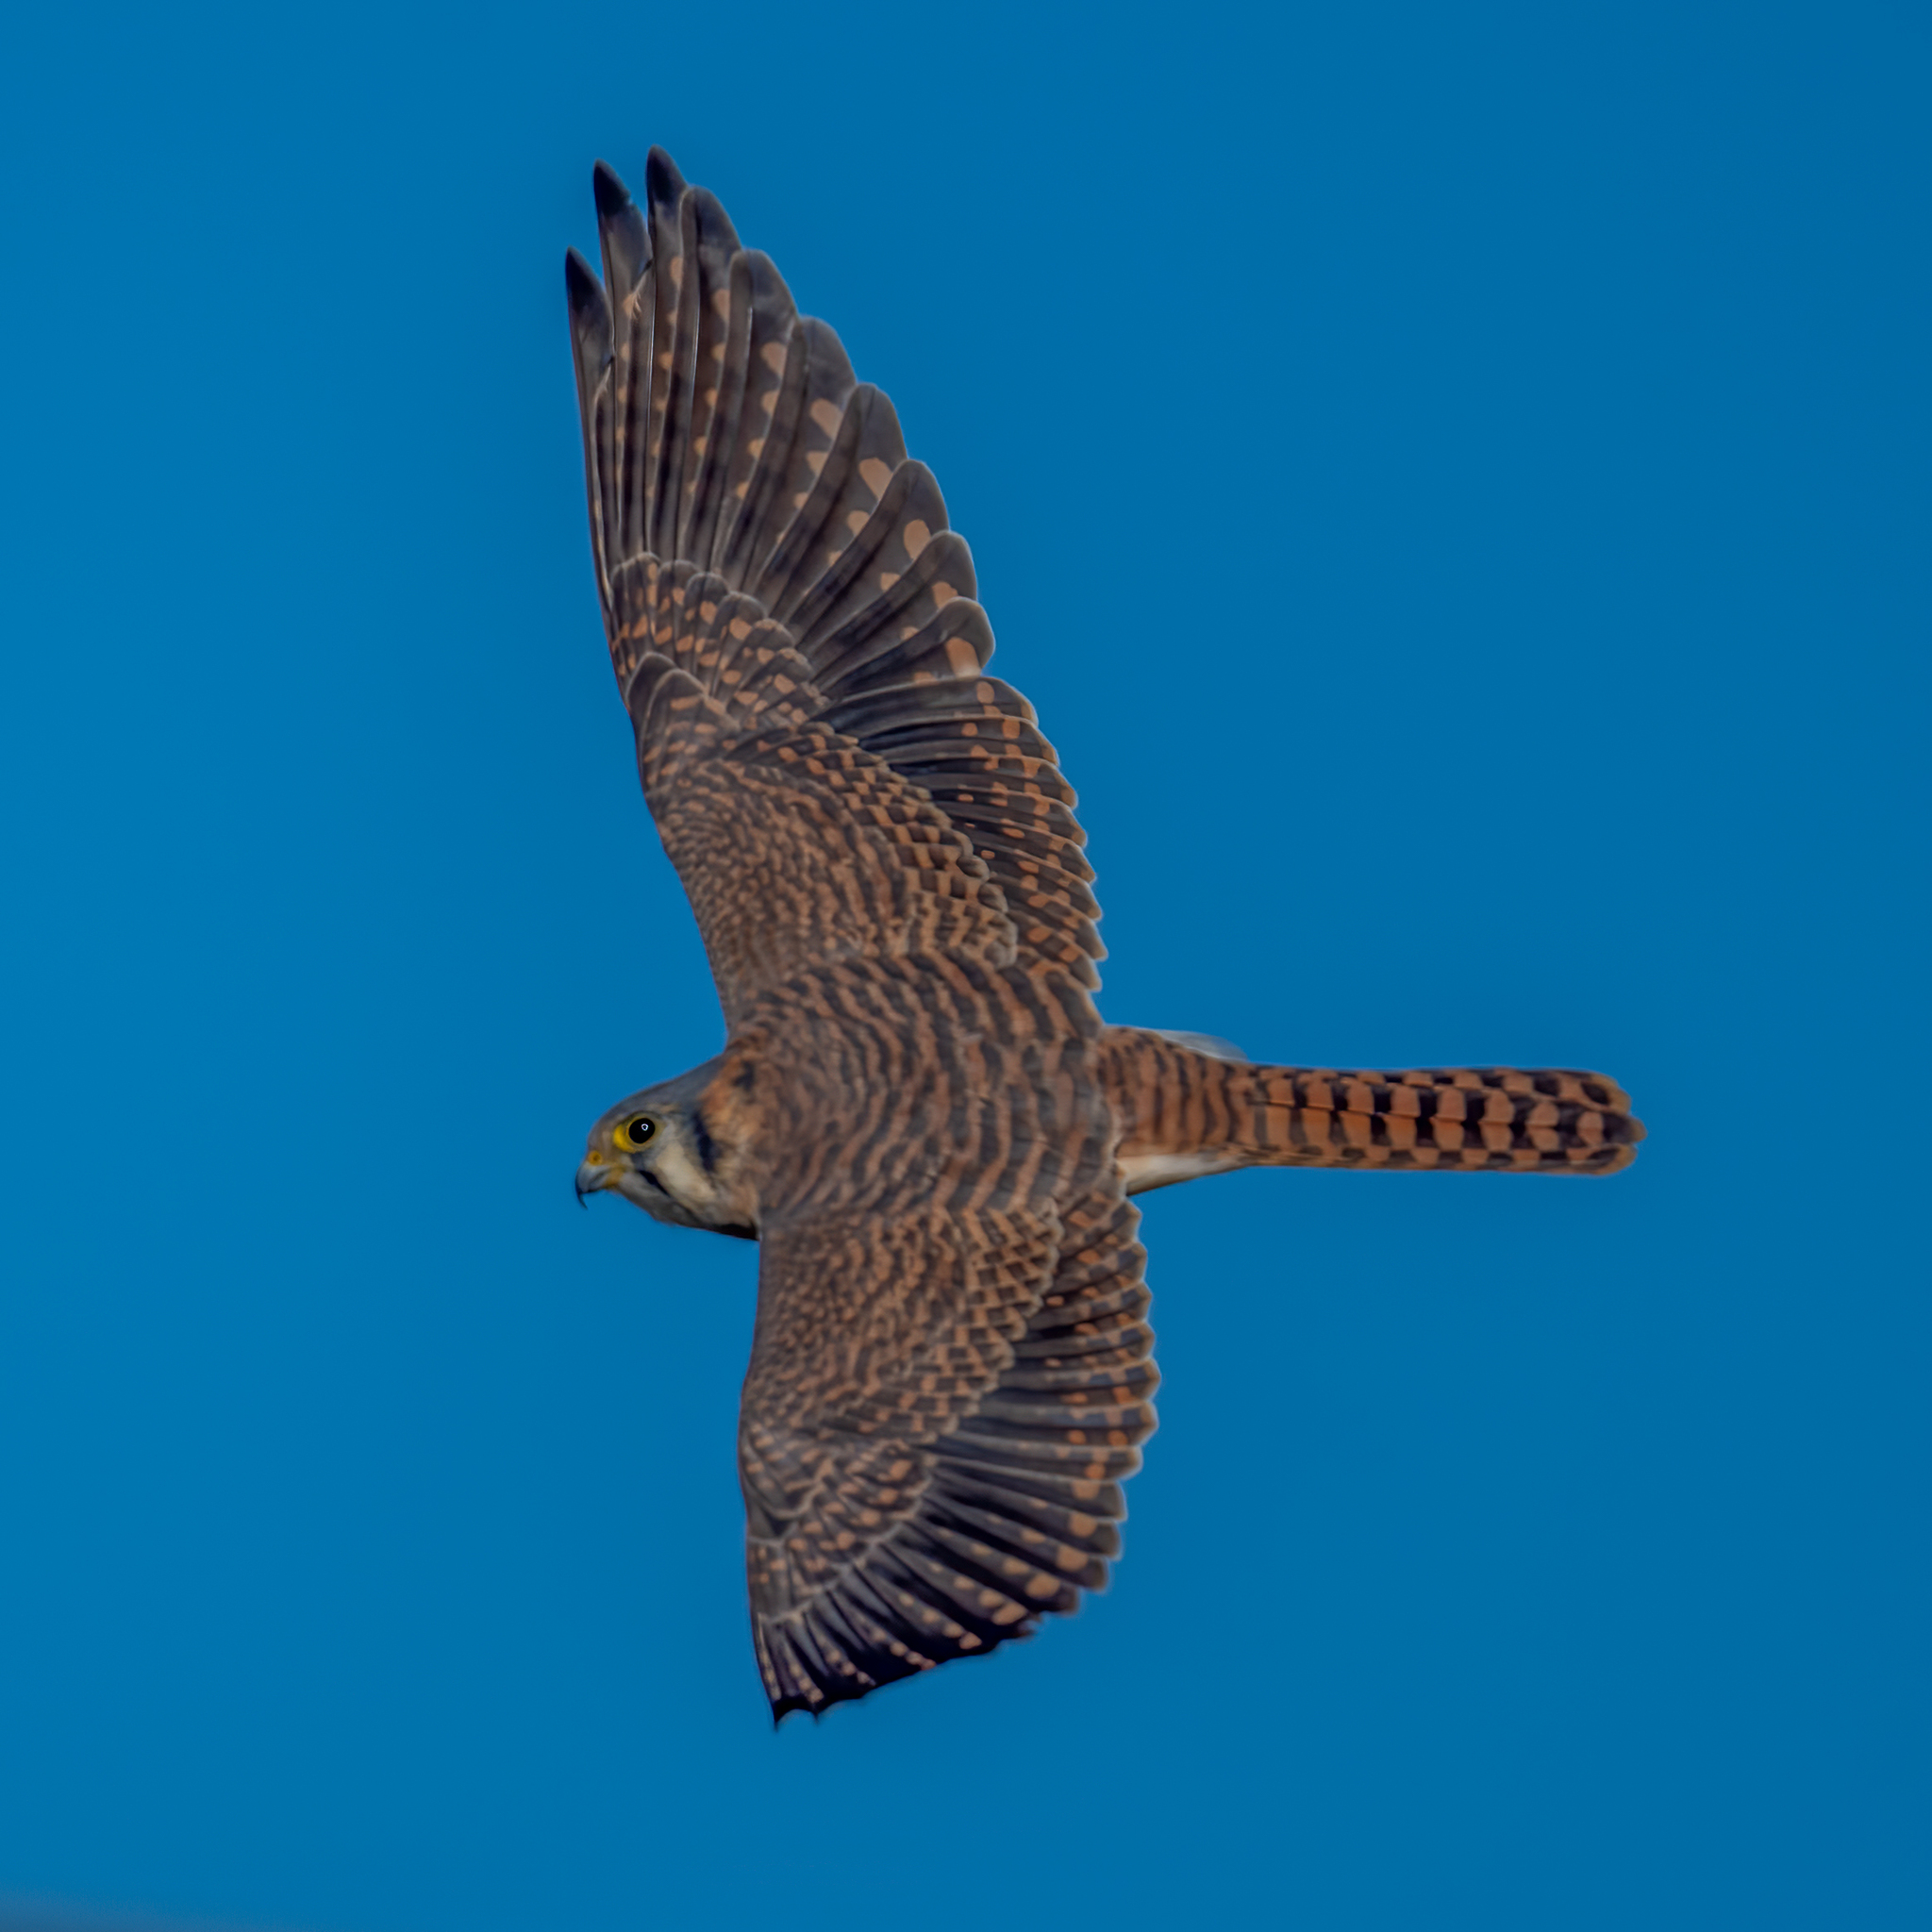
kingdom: Animalia
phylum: Chordata
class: Aves
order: Falconiformes
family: Falconidae
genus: Falco
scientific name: Falco sparverius
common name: American kestrel
